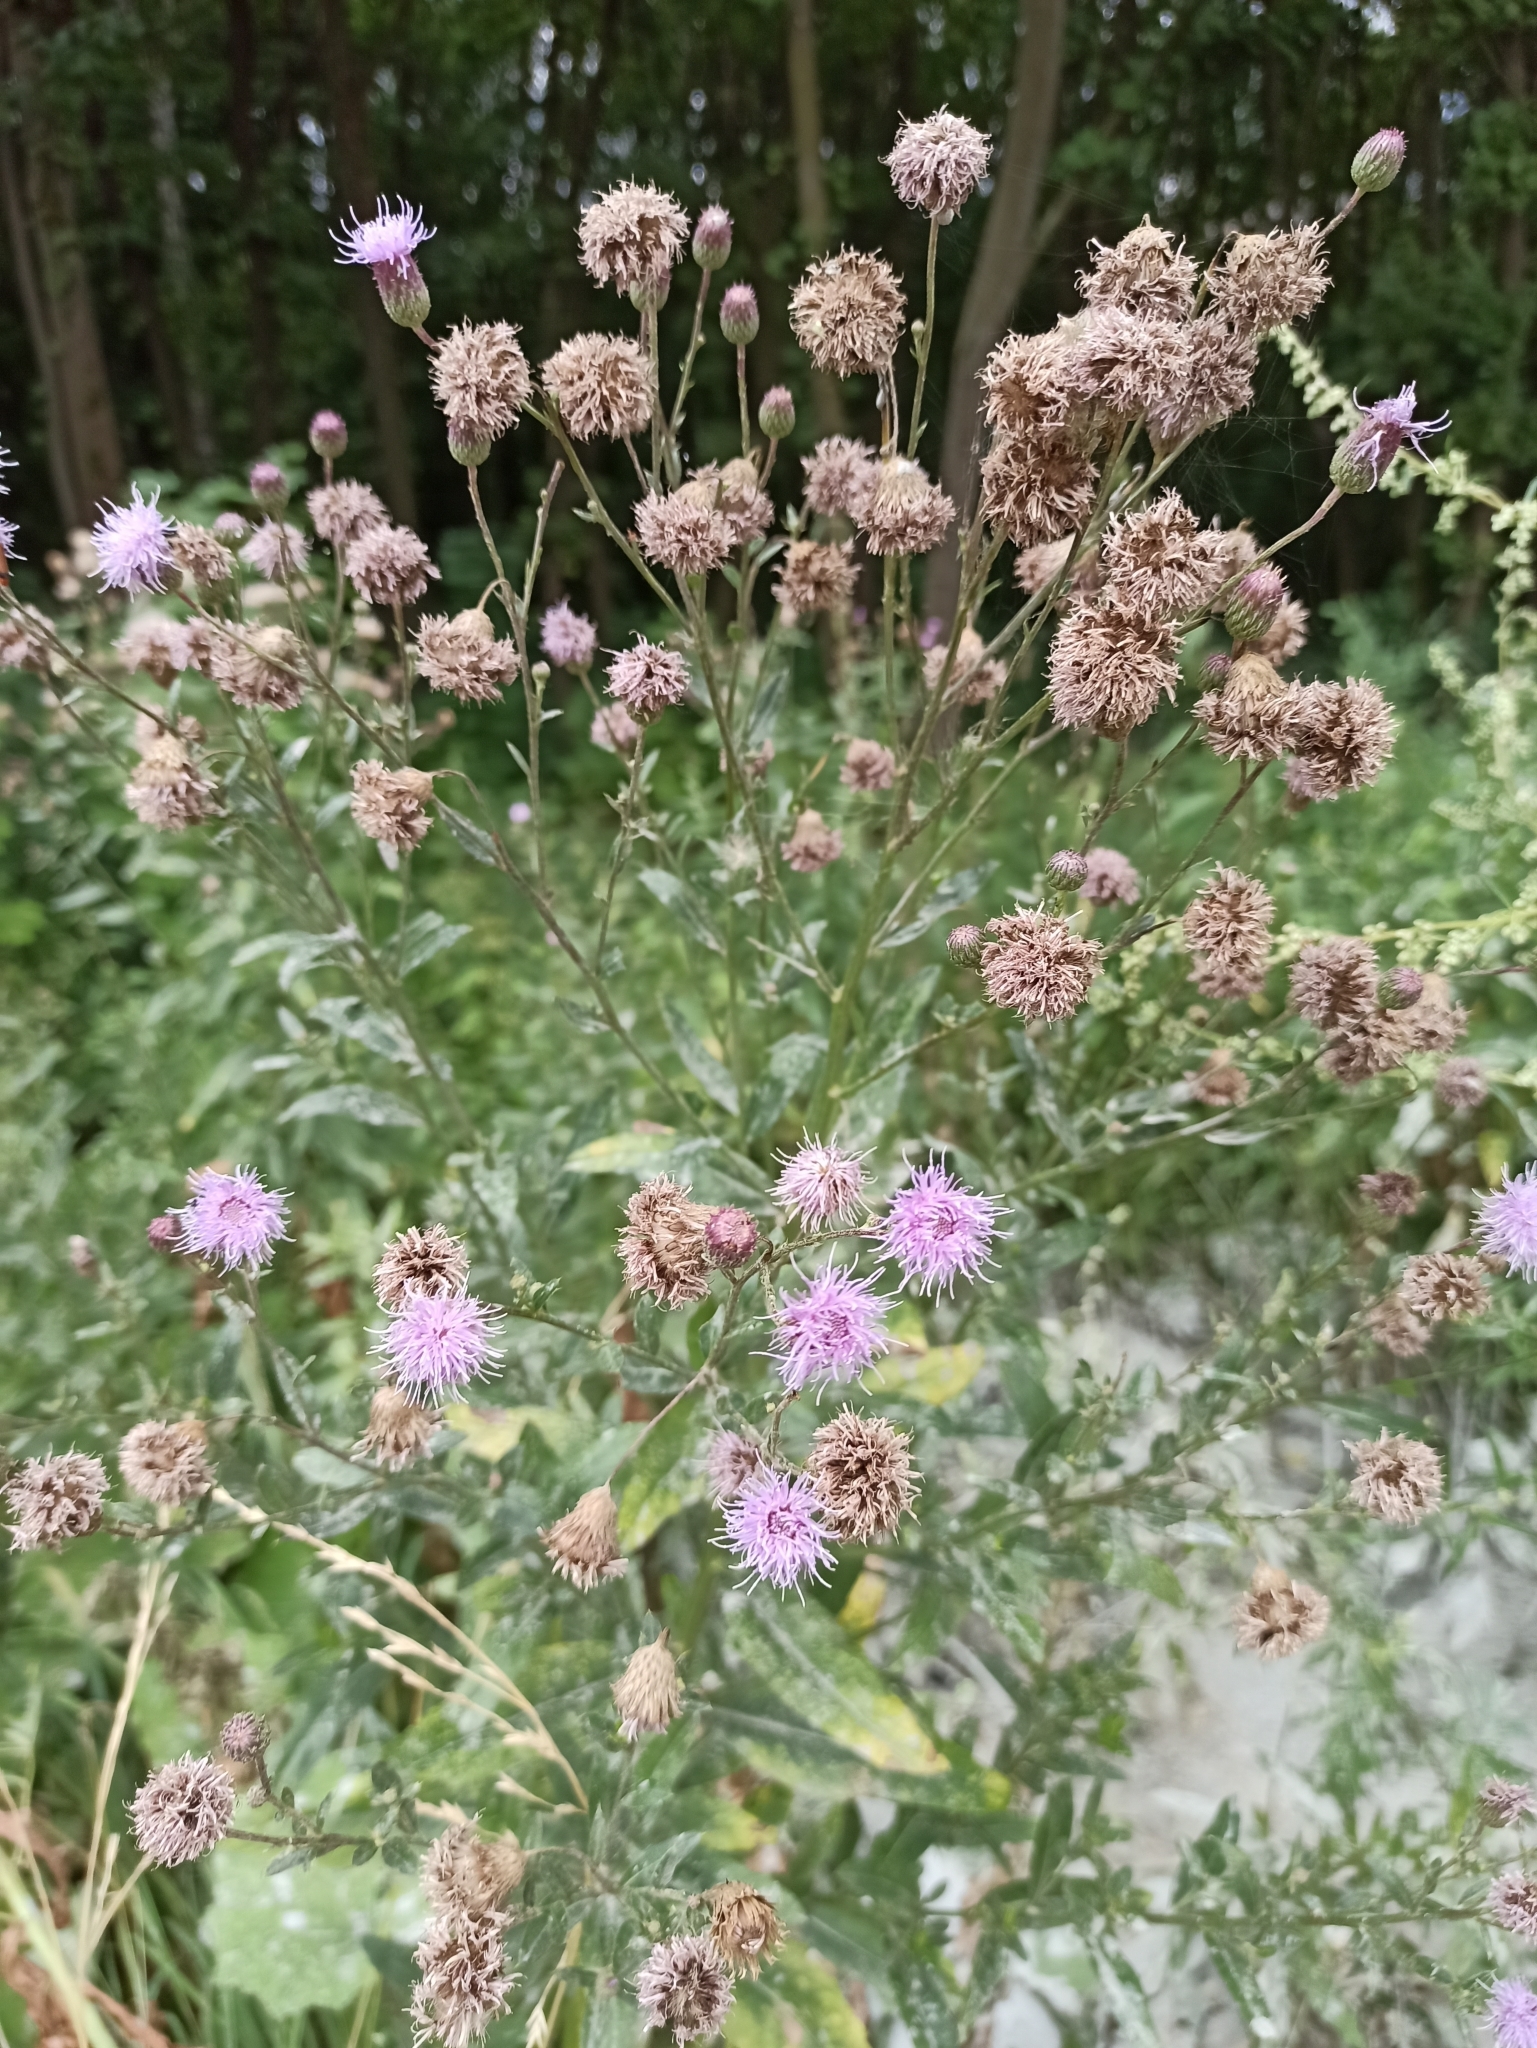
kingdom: Plantae
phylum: Tracheophyta
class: Magnoliopsida
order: Asterales
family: Asteraceae
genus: Cirsium
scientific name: Cirsium arvense
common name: Creeping thistle
